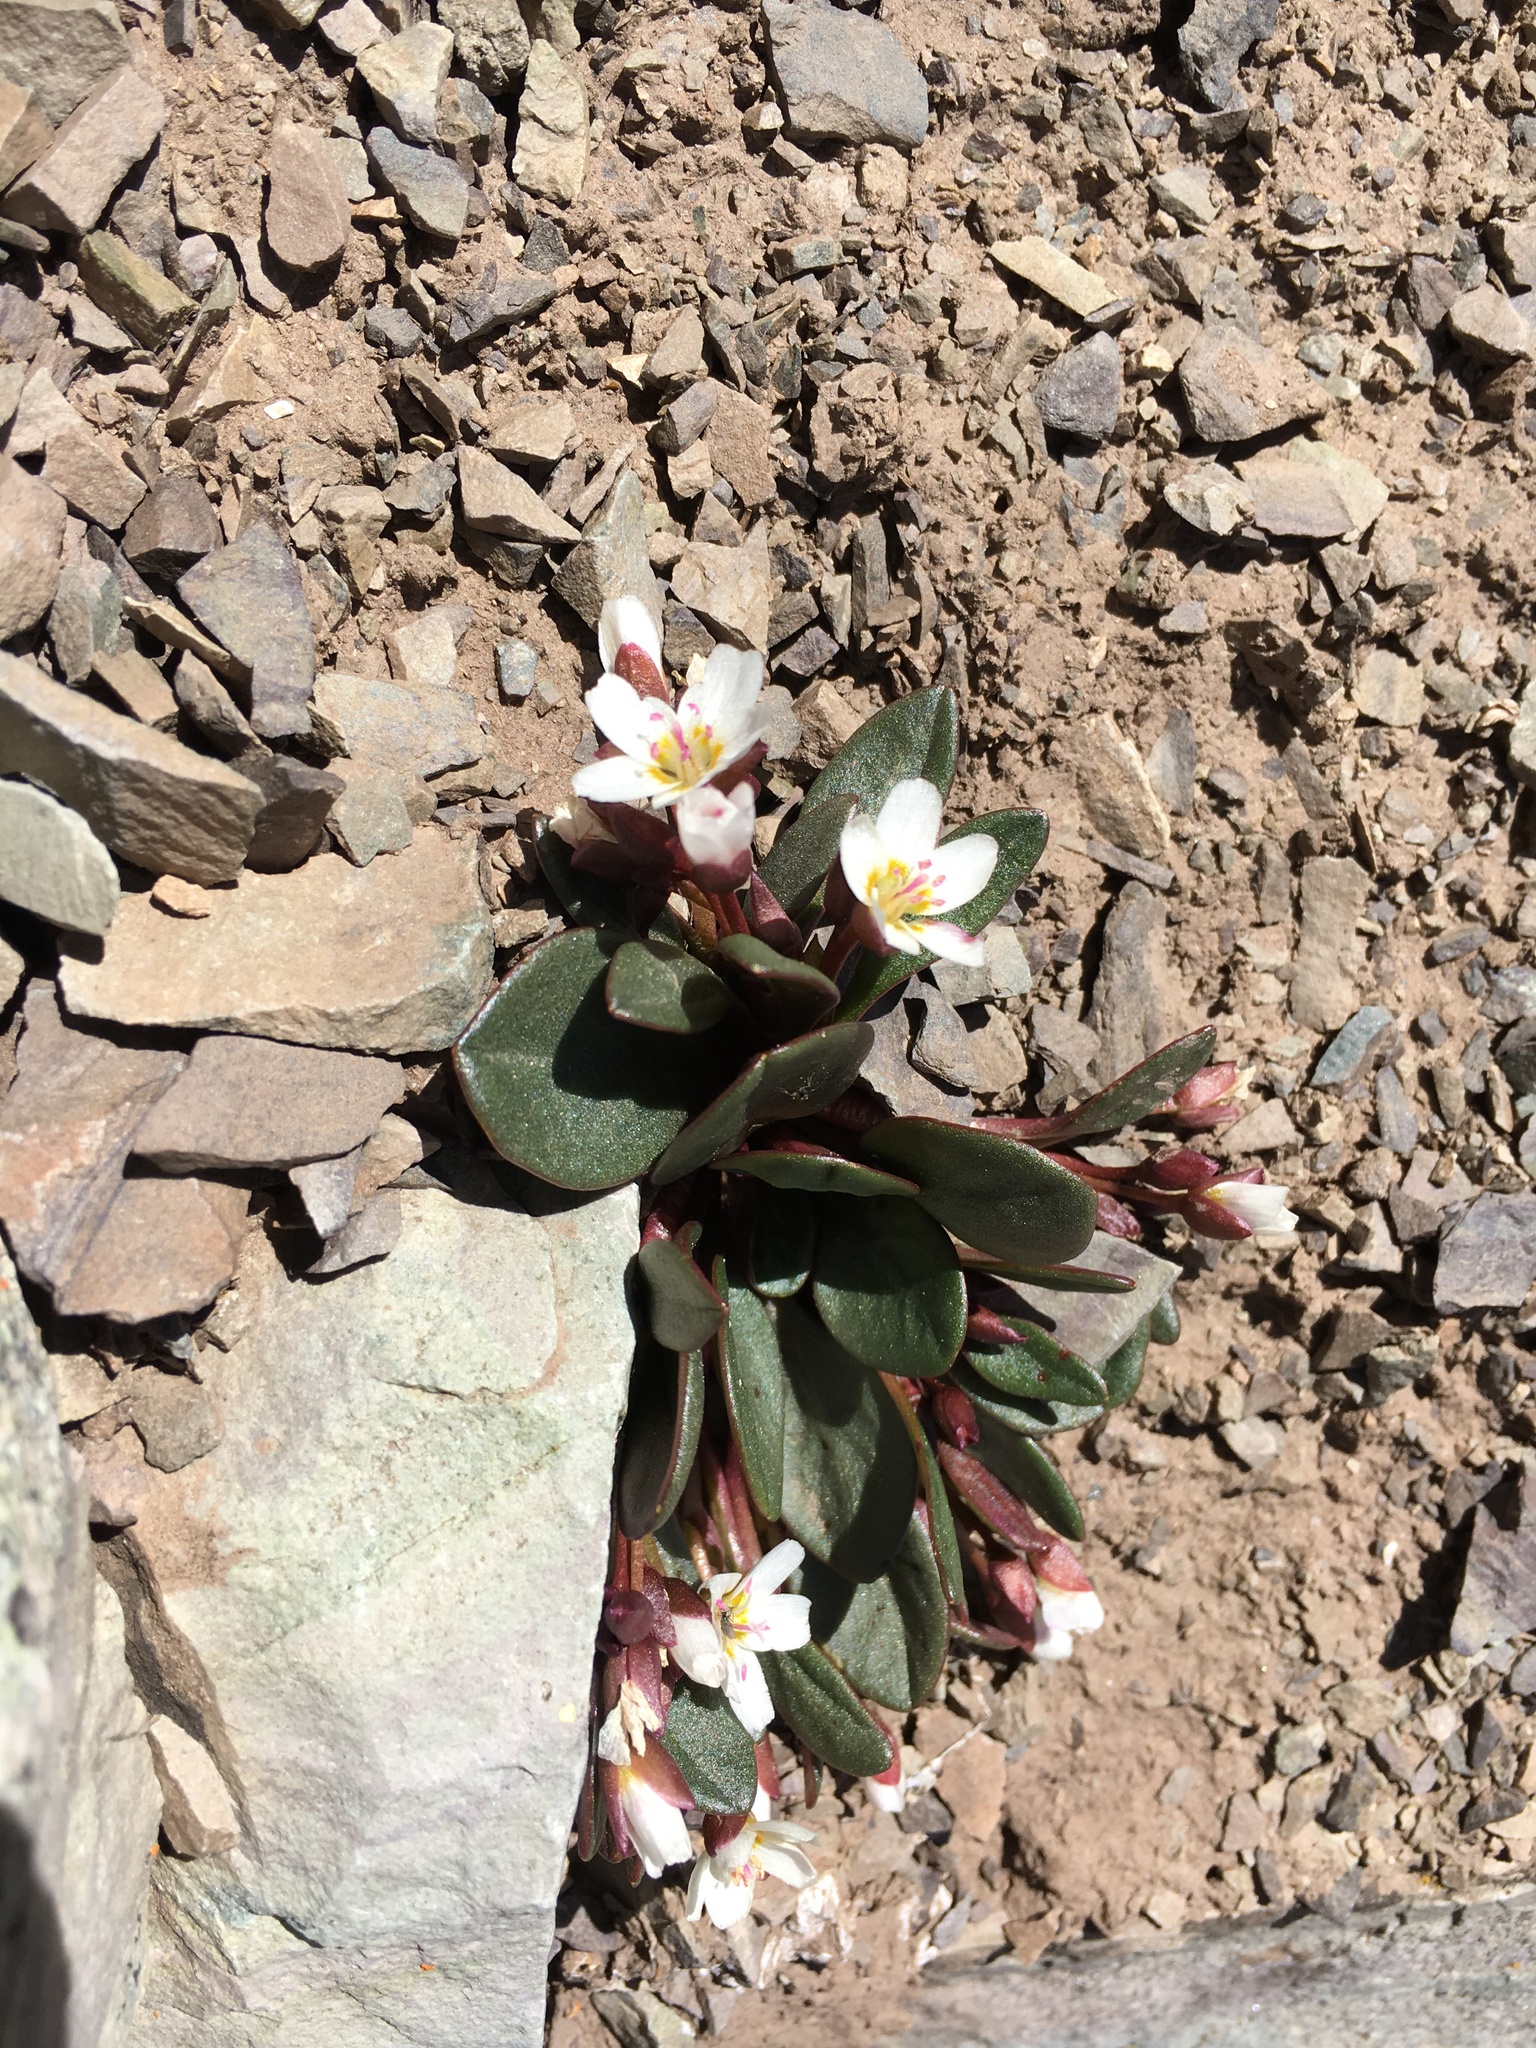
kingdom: Plantae
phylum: Tracheophyta
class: Magnoliopsida
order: Caryophyllales
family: Montiaceae
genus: Claytonia
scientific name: Claytonia megarhiza
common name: Alpine spring beauty
